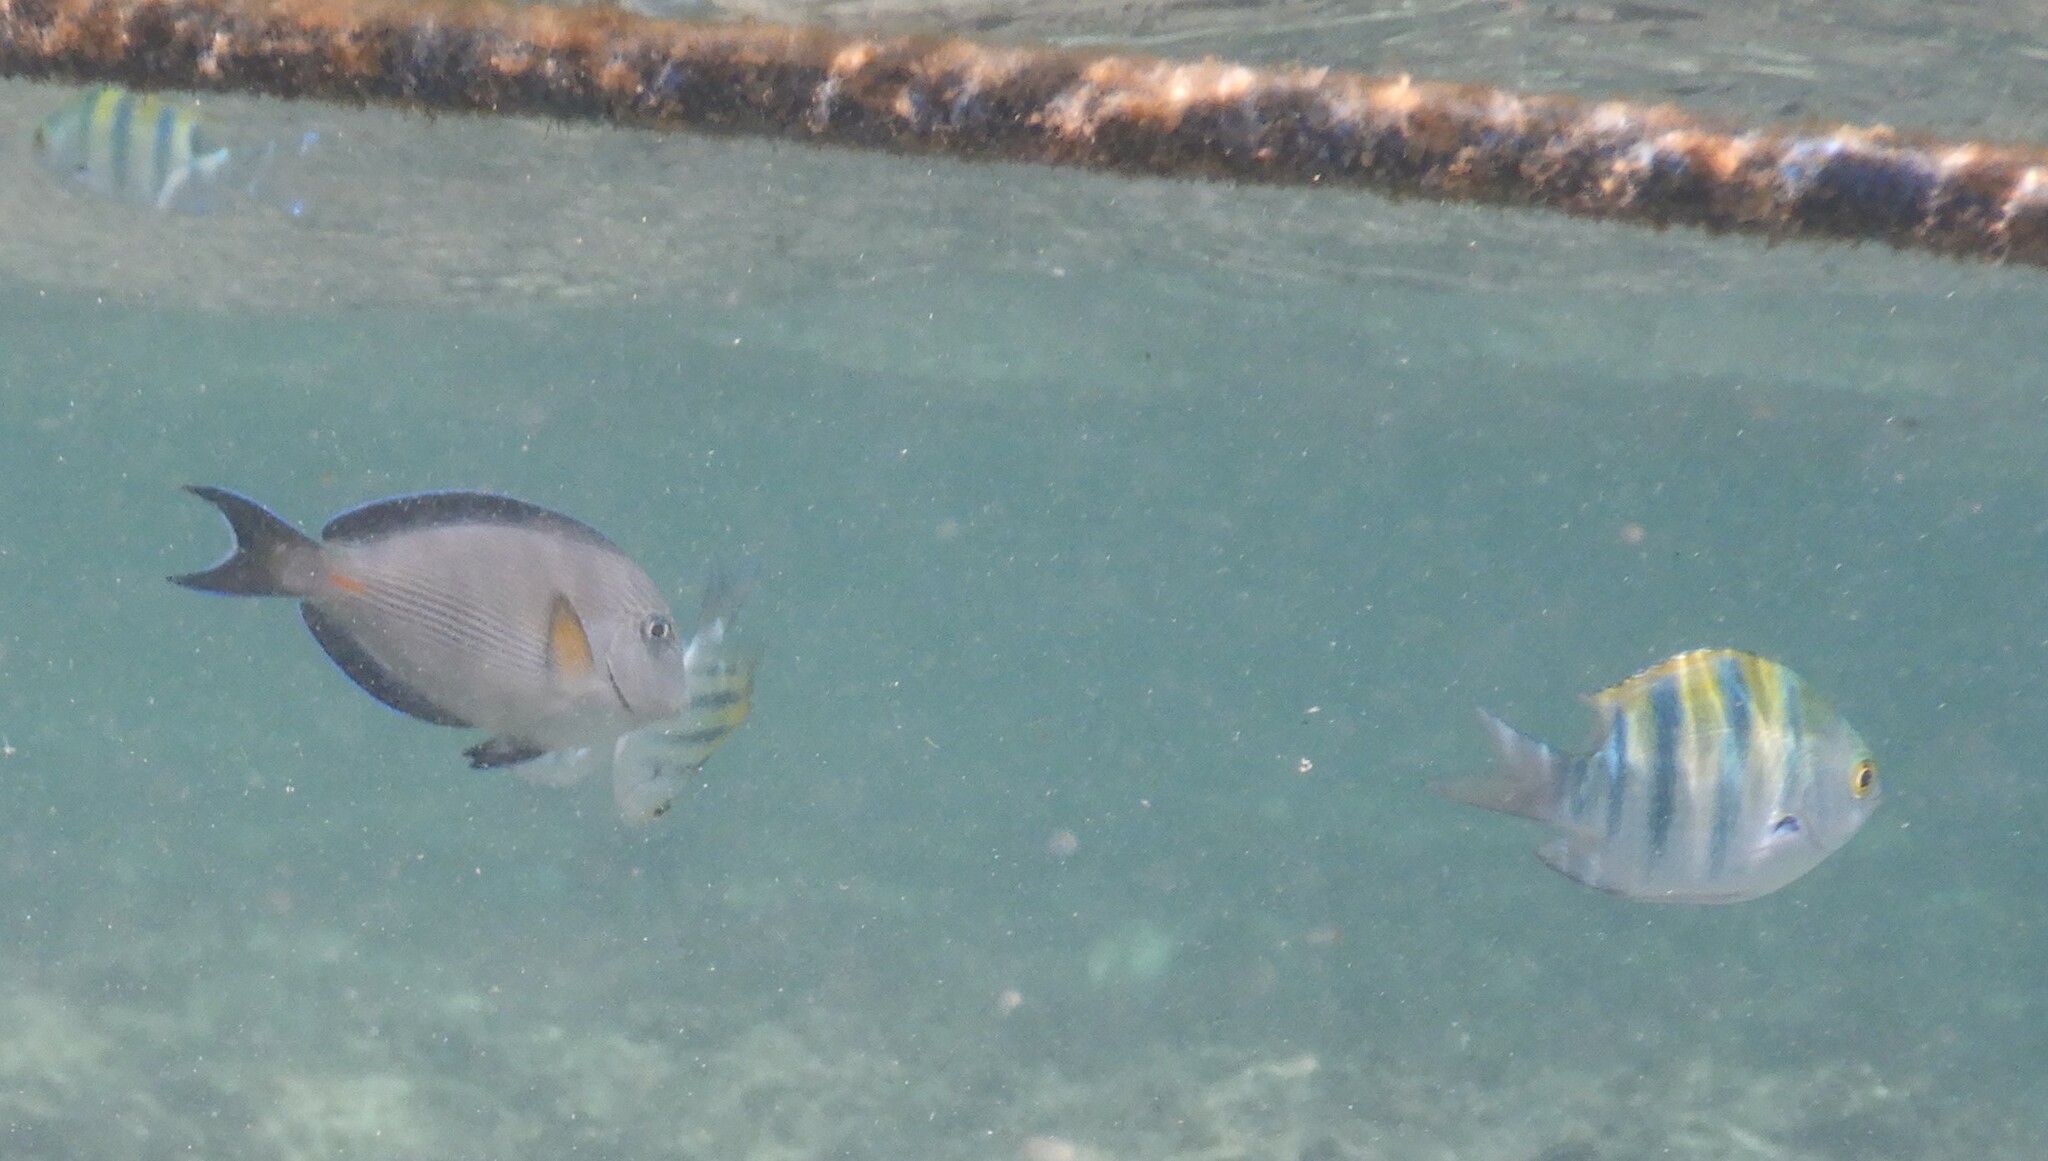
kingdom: Animalia
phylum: Chordata
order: Perciformes
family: Pomacentridae
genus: Abudefduf
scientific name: Abudefduf vaigiensis
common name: Indo-pacific sergeant
